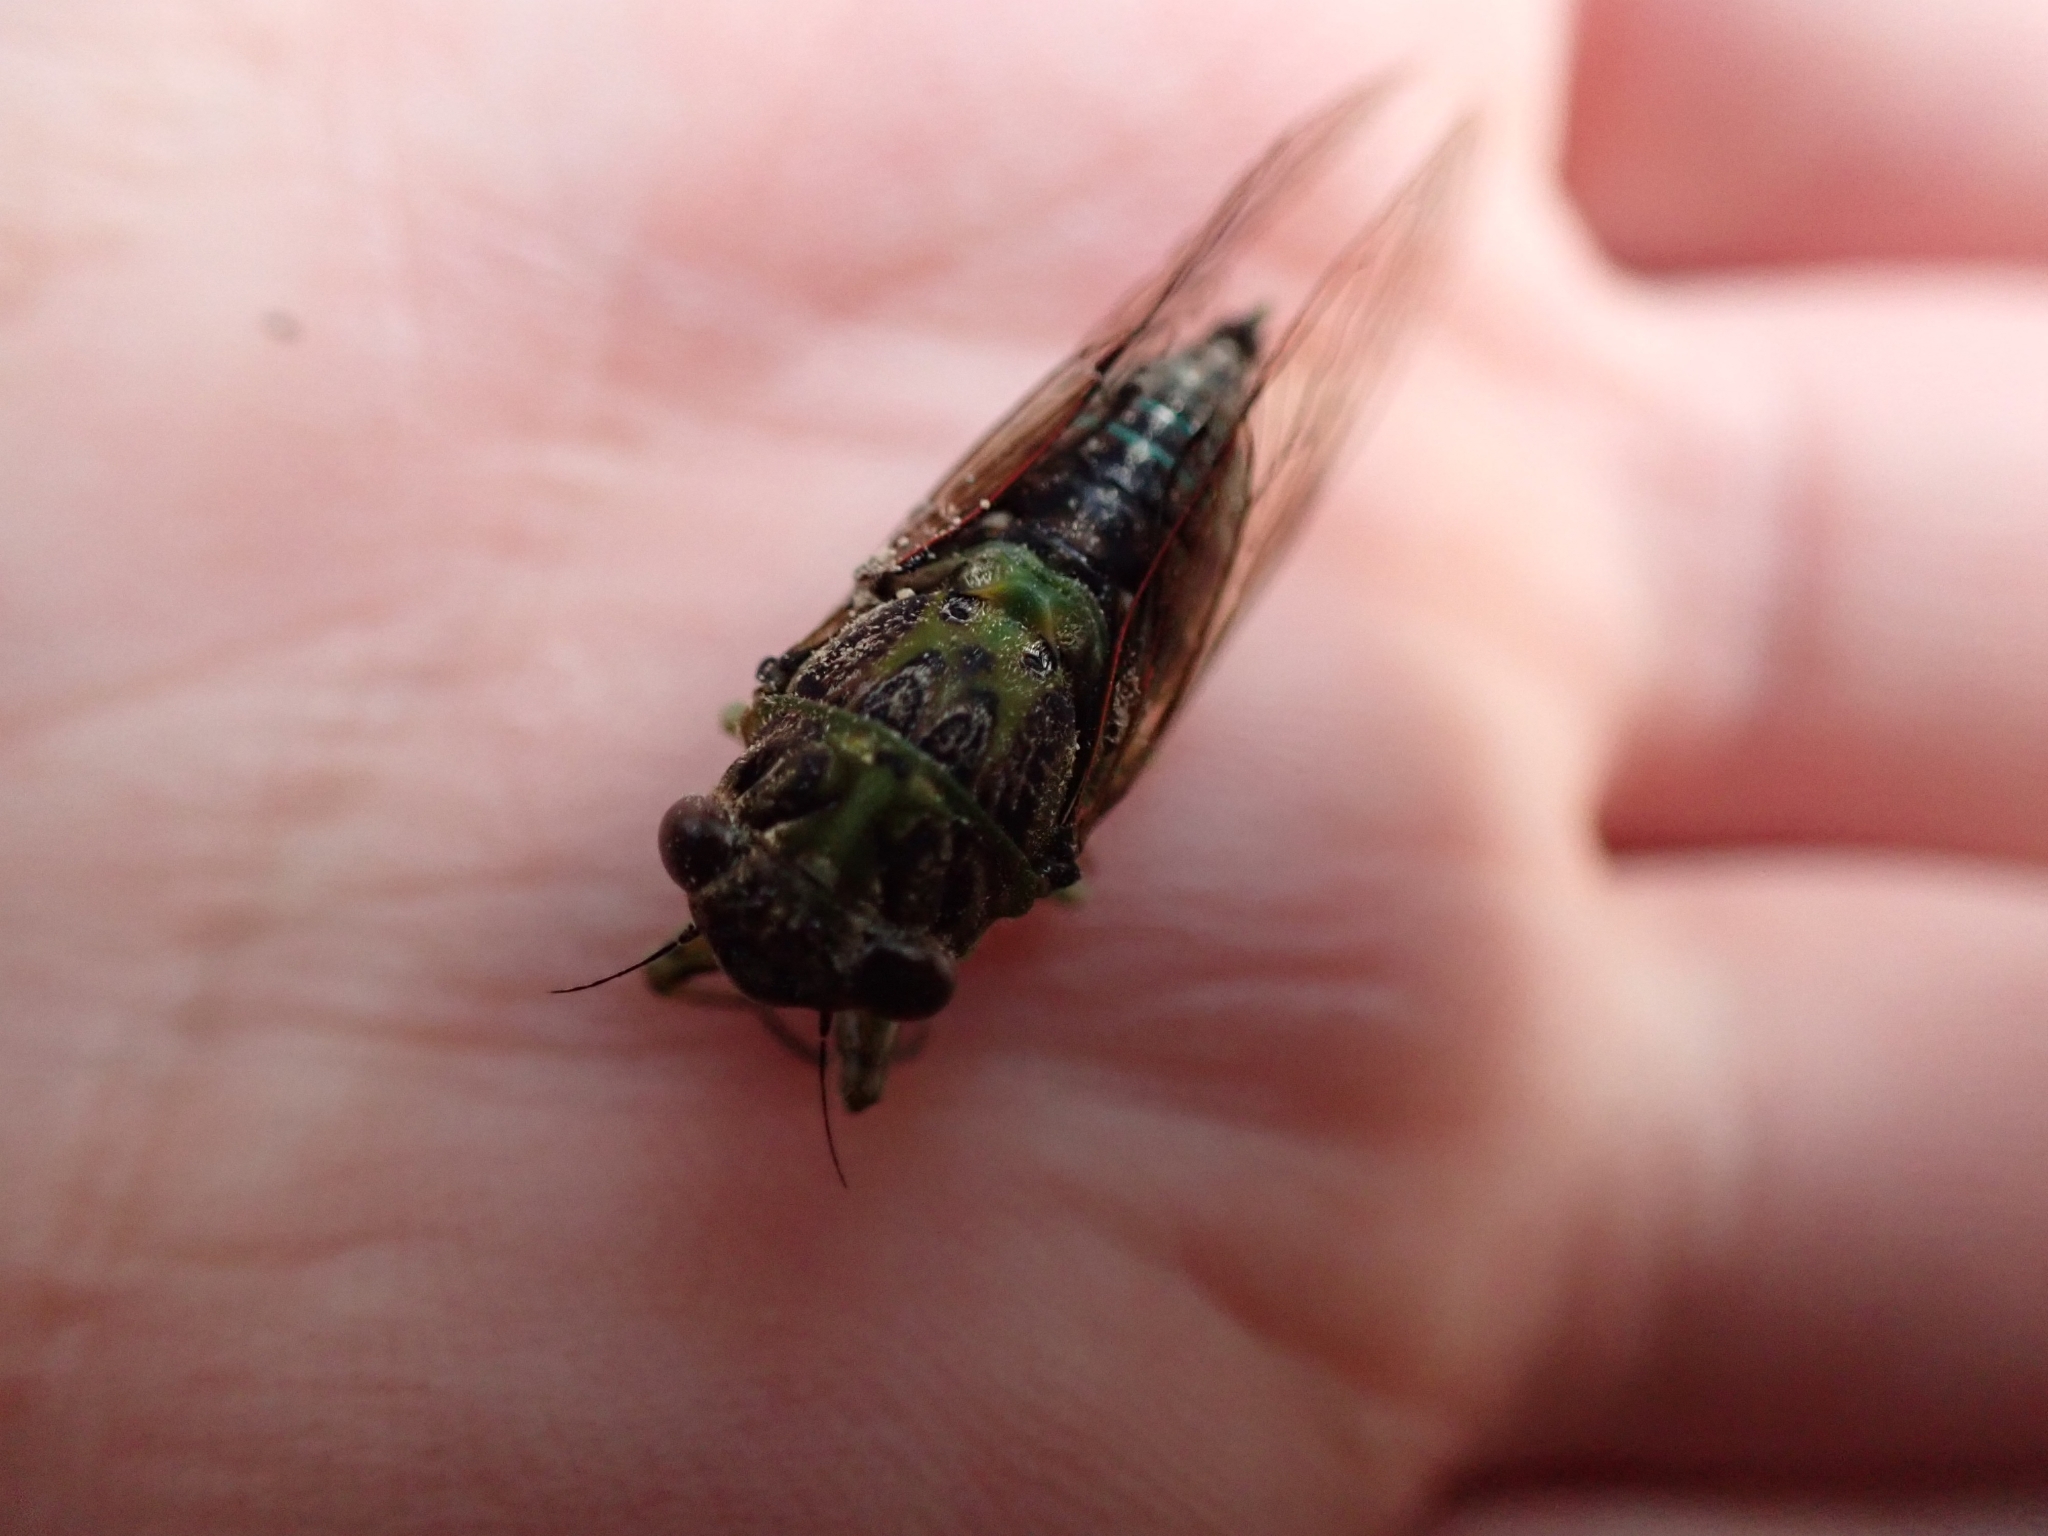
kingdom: Animalia
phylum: Arthropoda
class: Insecta
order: Hemiptera
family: Cicadidae
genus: Kikihia
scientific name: Kikihia scutellaris
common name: Lesser bronze cicada
